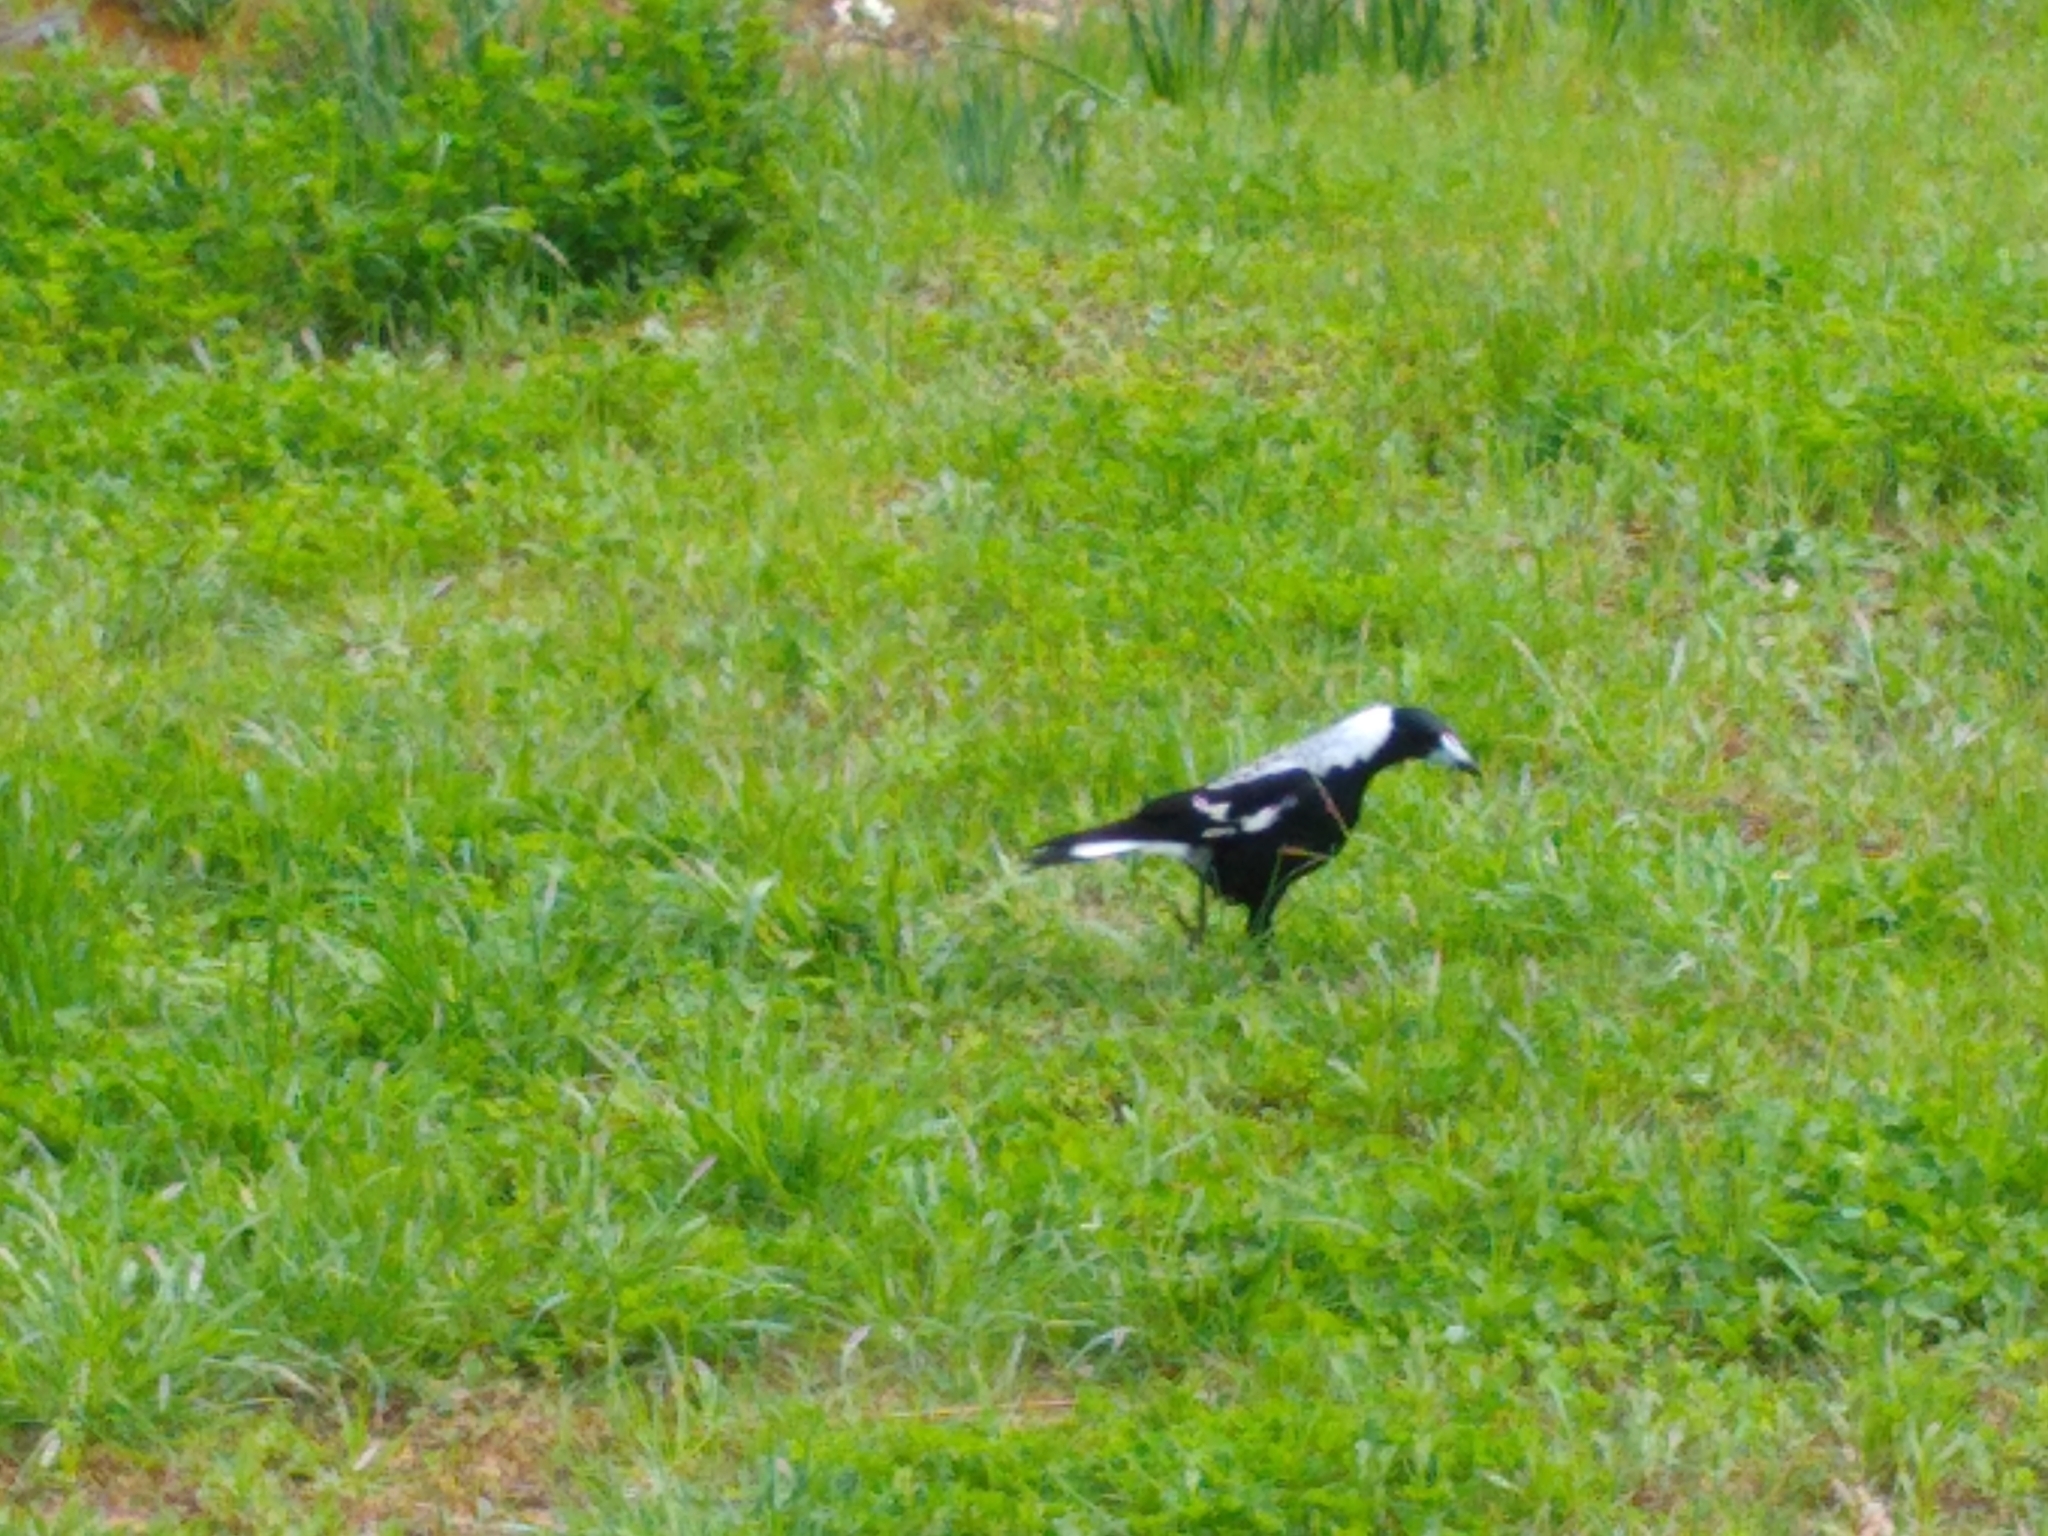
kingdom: Animalia
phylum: Chordata
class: Aves
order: Passeriformes
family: Cracticidae
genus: Gymnorhina
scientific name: Gymnorhina tibicen
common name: Australian magpie
